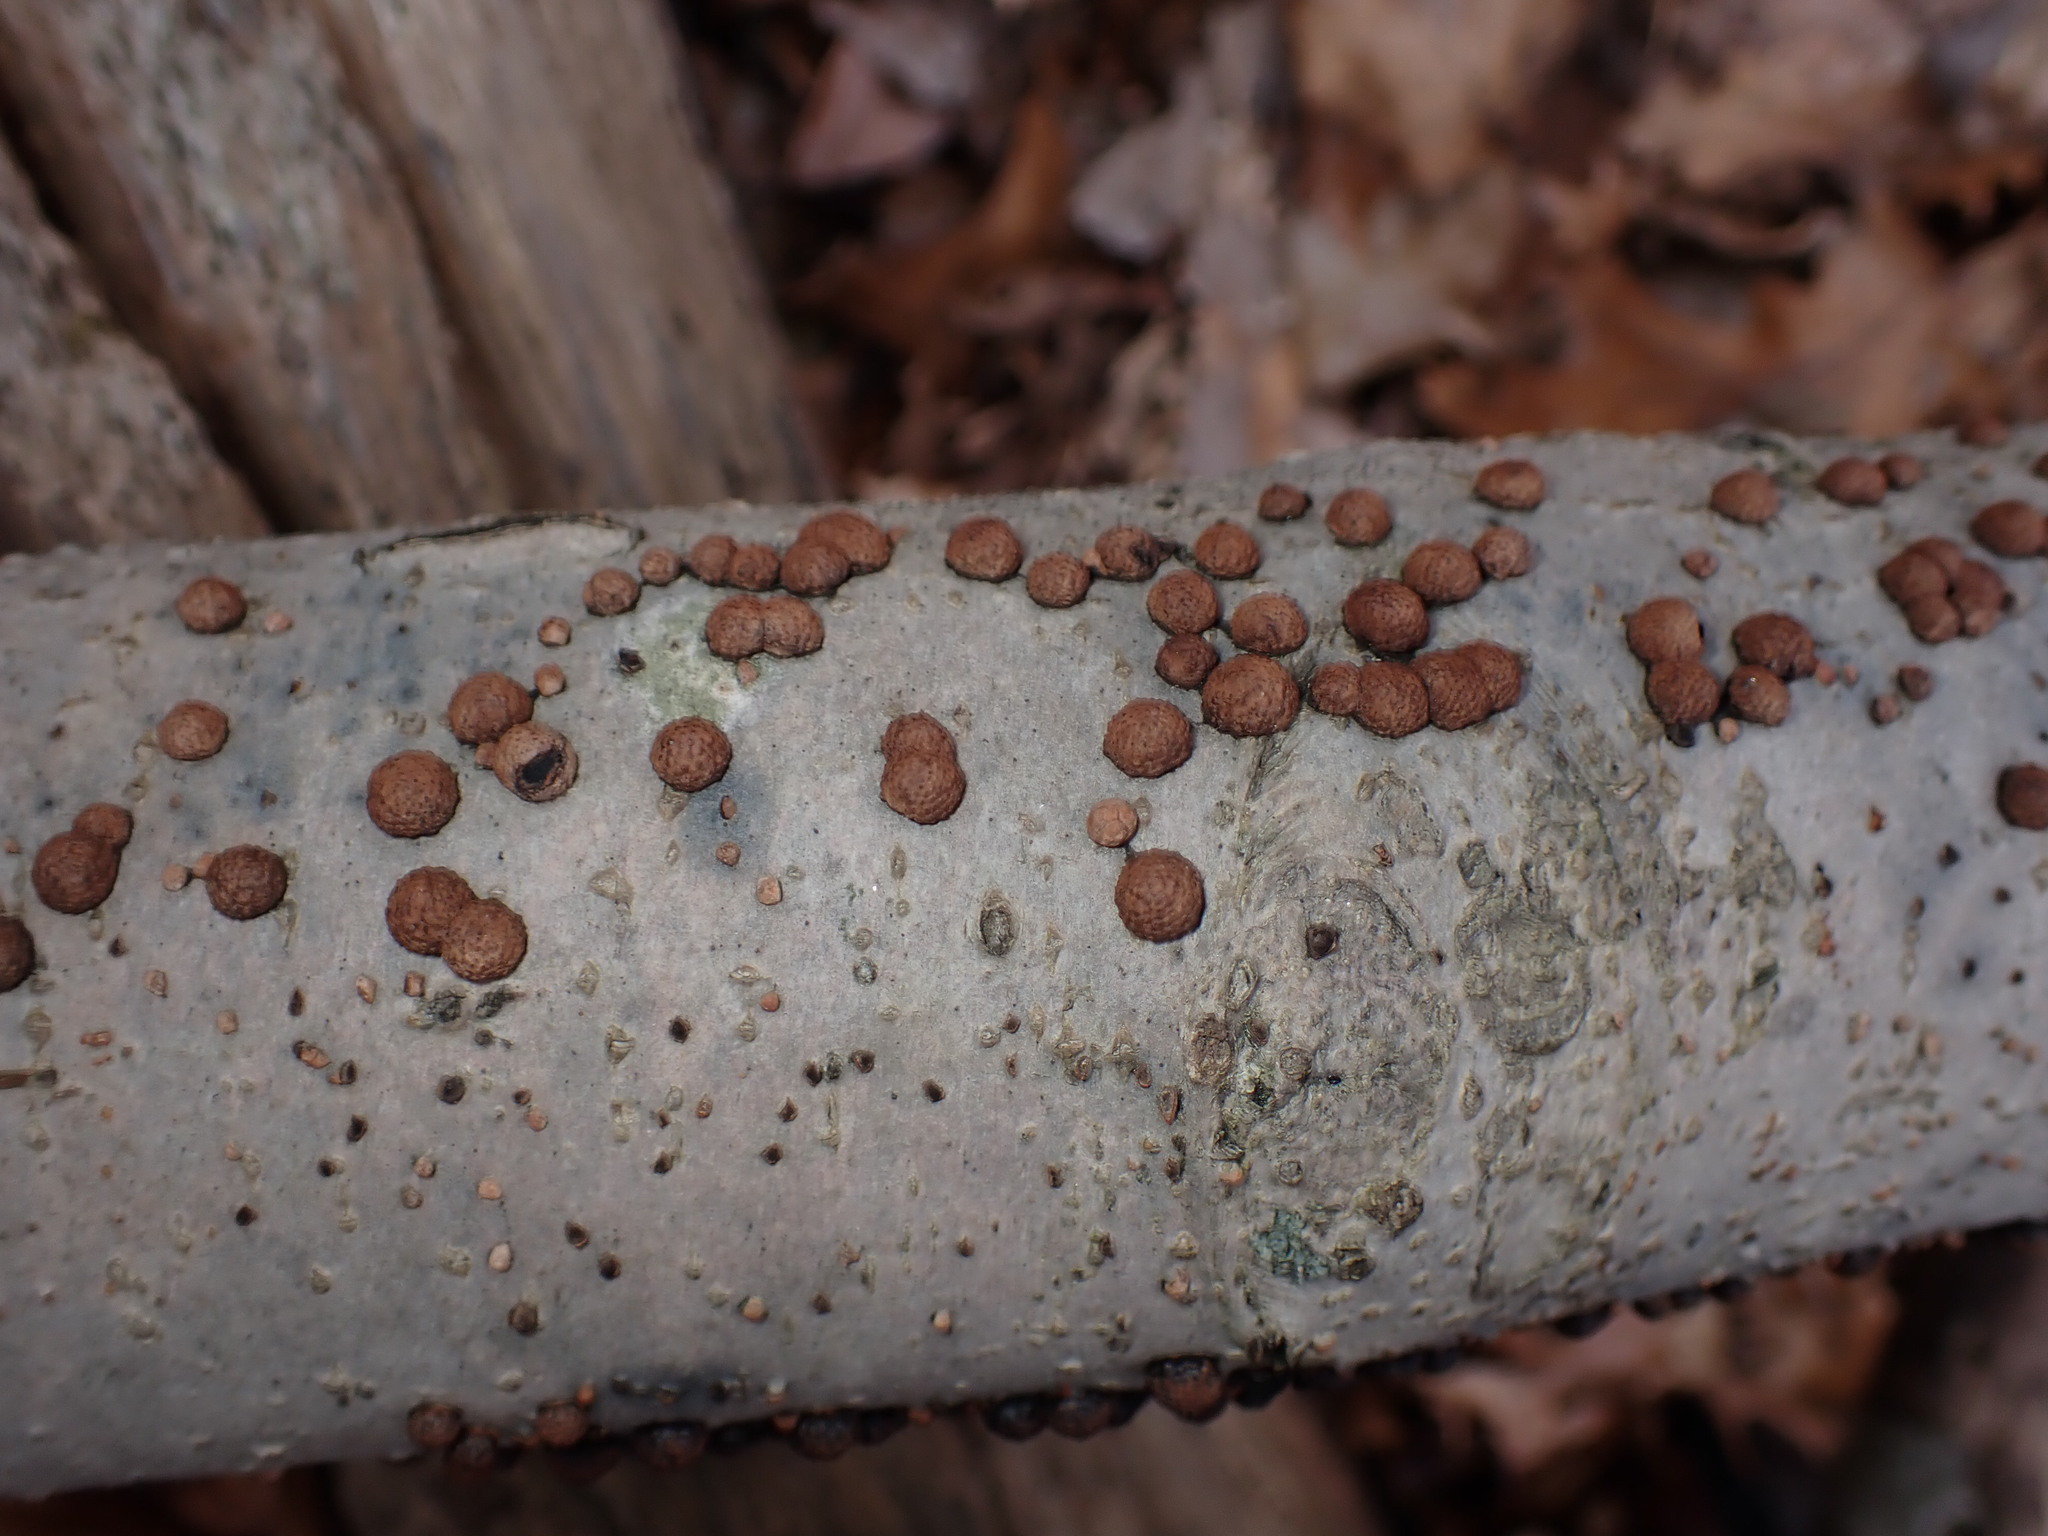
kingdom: Fungi
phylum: Ascomycota
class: Sordariomycetes
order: Xylariales
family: Hypoxylaceae
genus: Hypoxylon
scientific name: Hypoxylon fragiforme
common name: Beech woodwart
